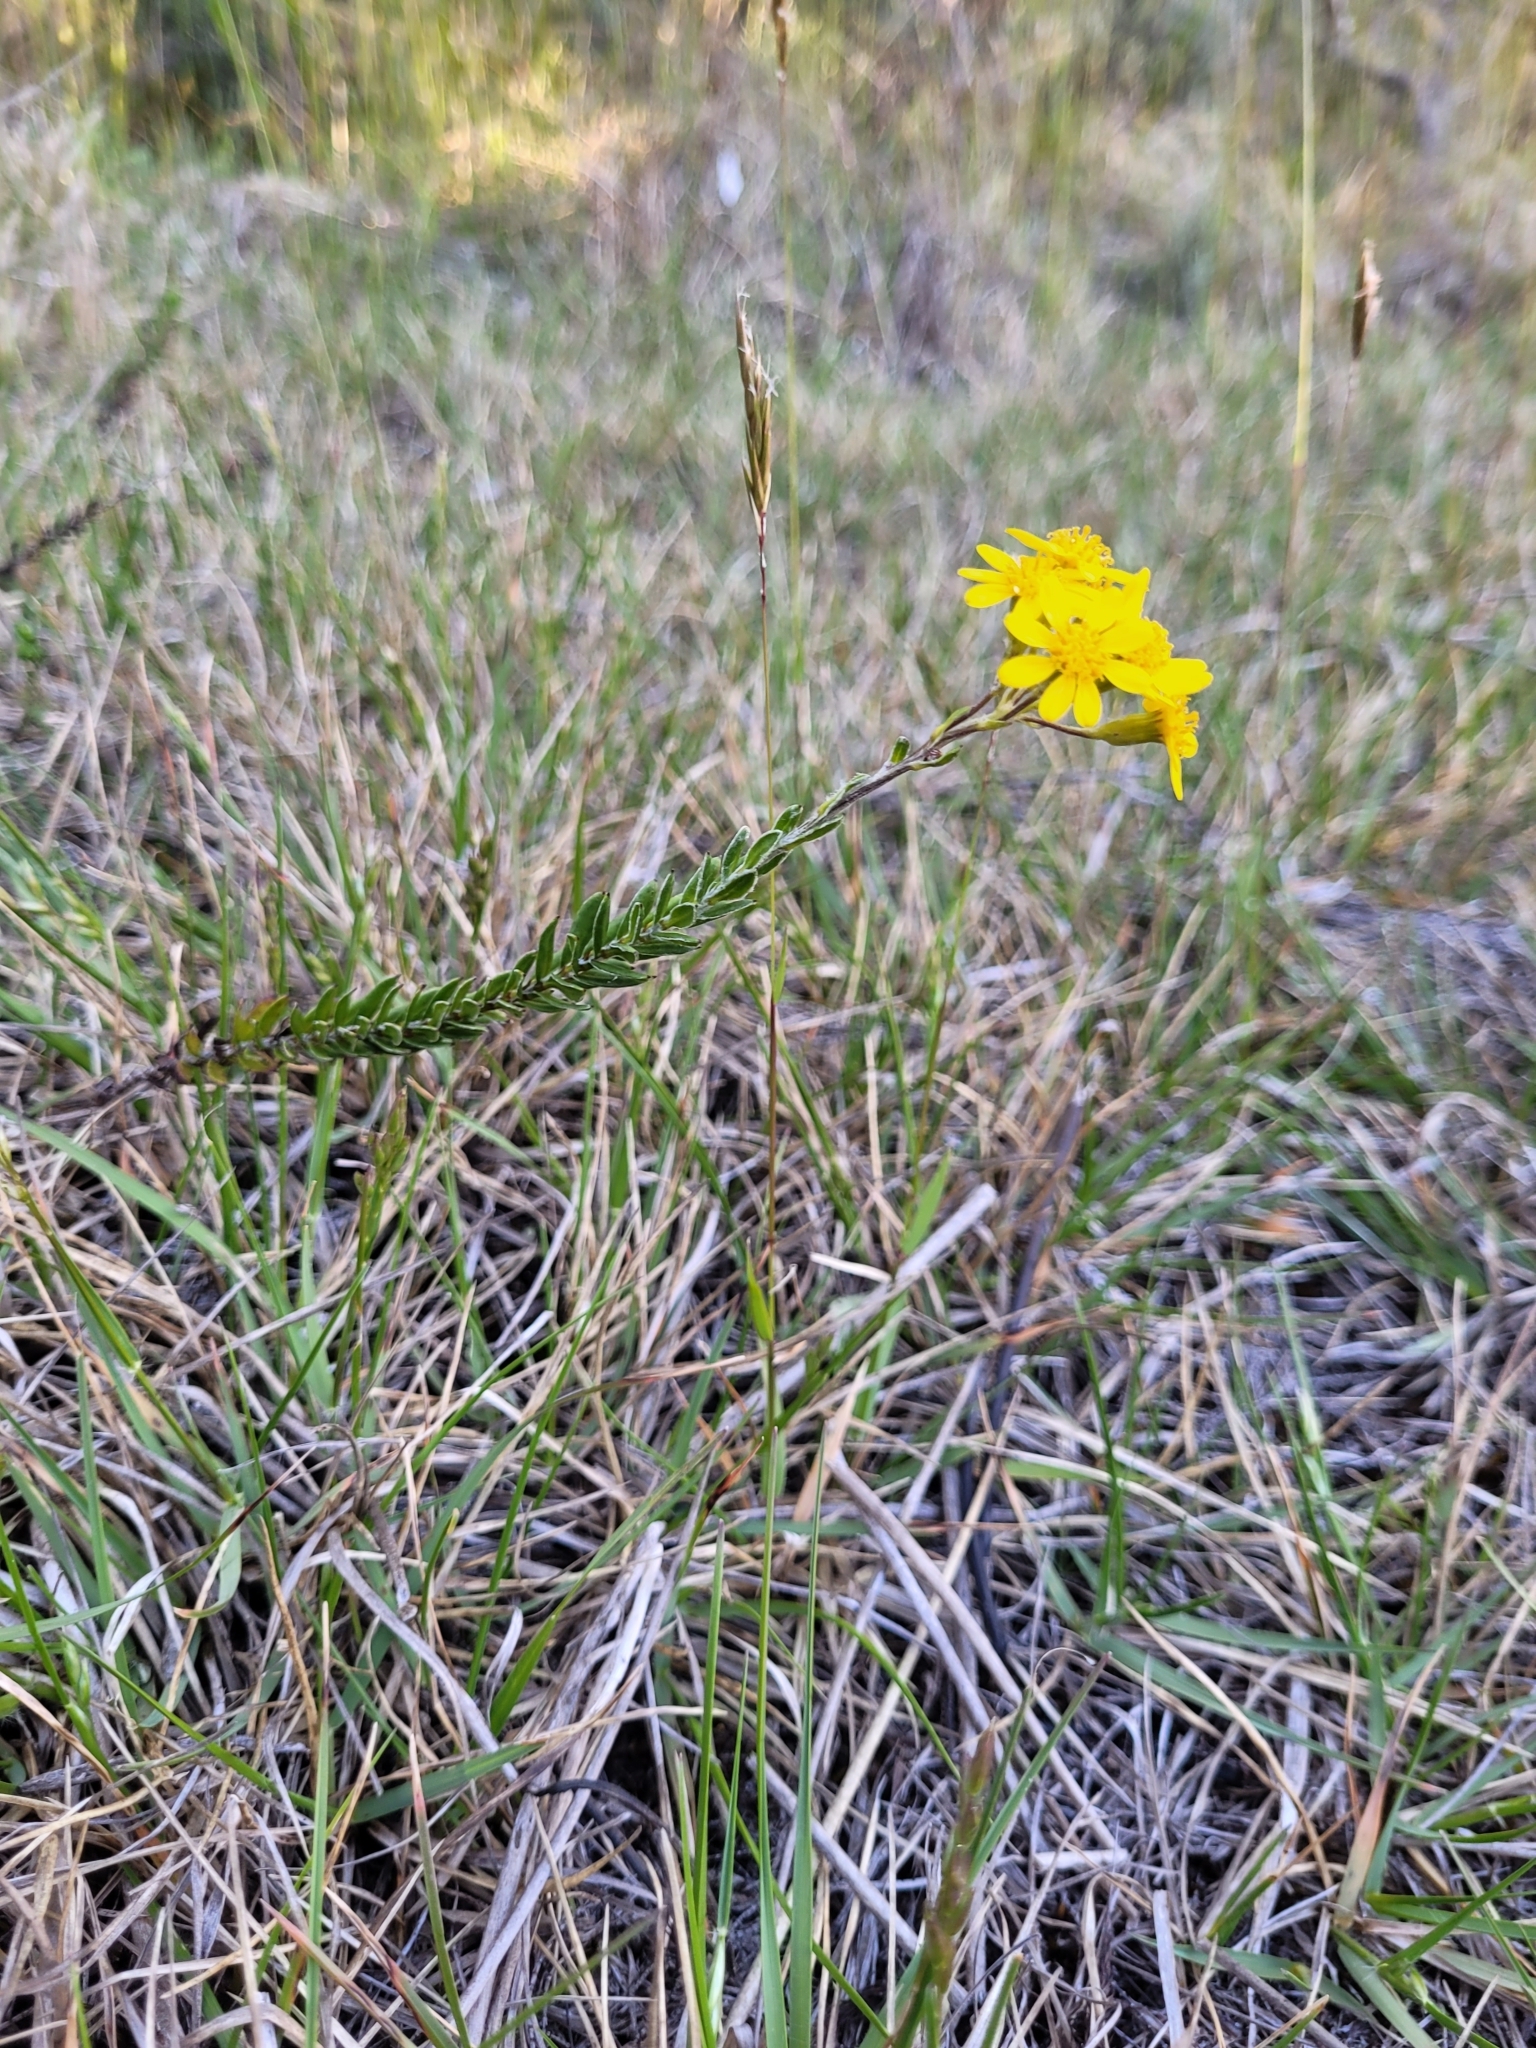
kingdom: Plantae
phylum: Tracheophyta
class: Magnoliopsida
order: Asterales
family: Asteraceae
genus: Hubertia
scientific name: Hubertia tomentosa
